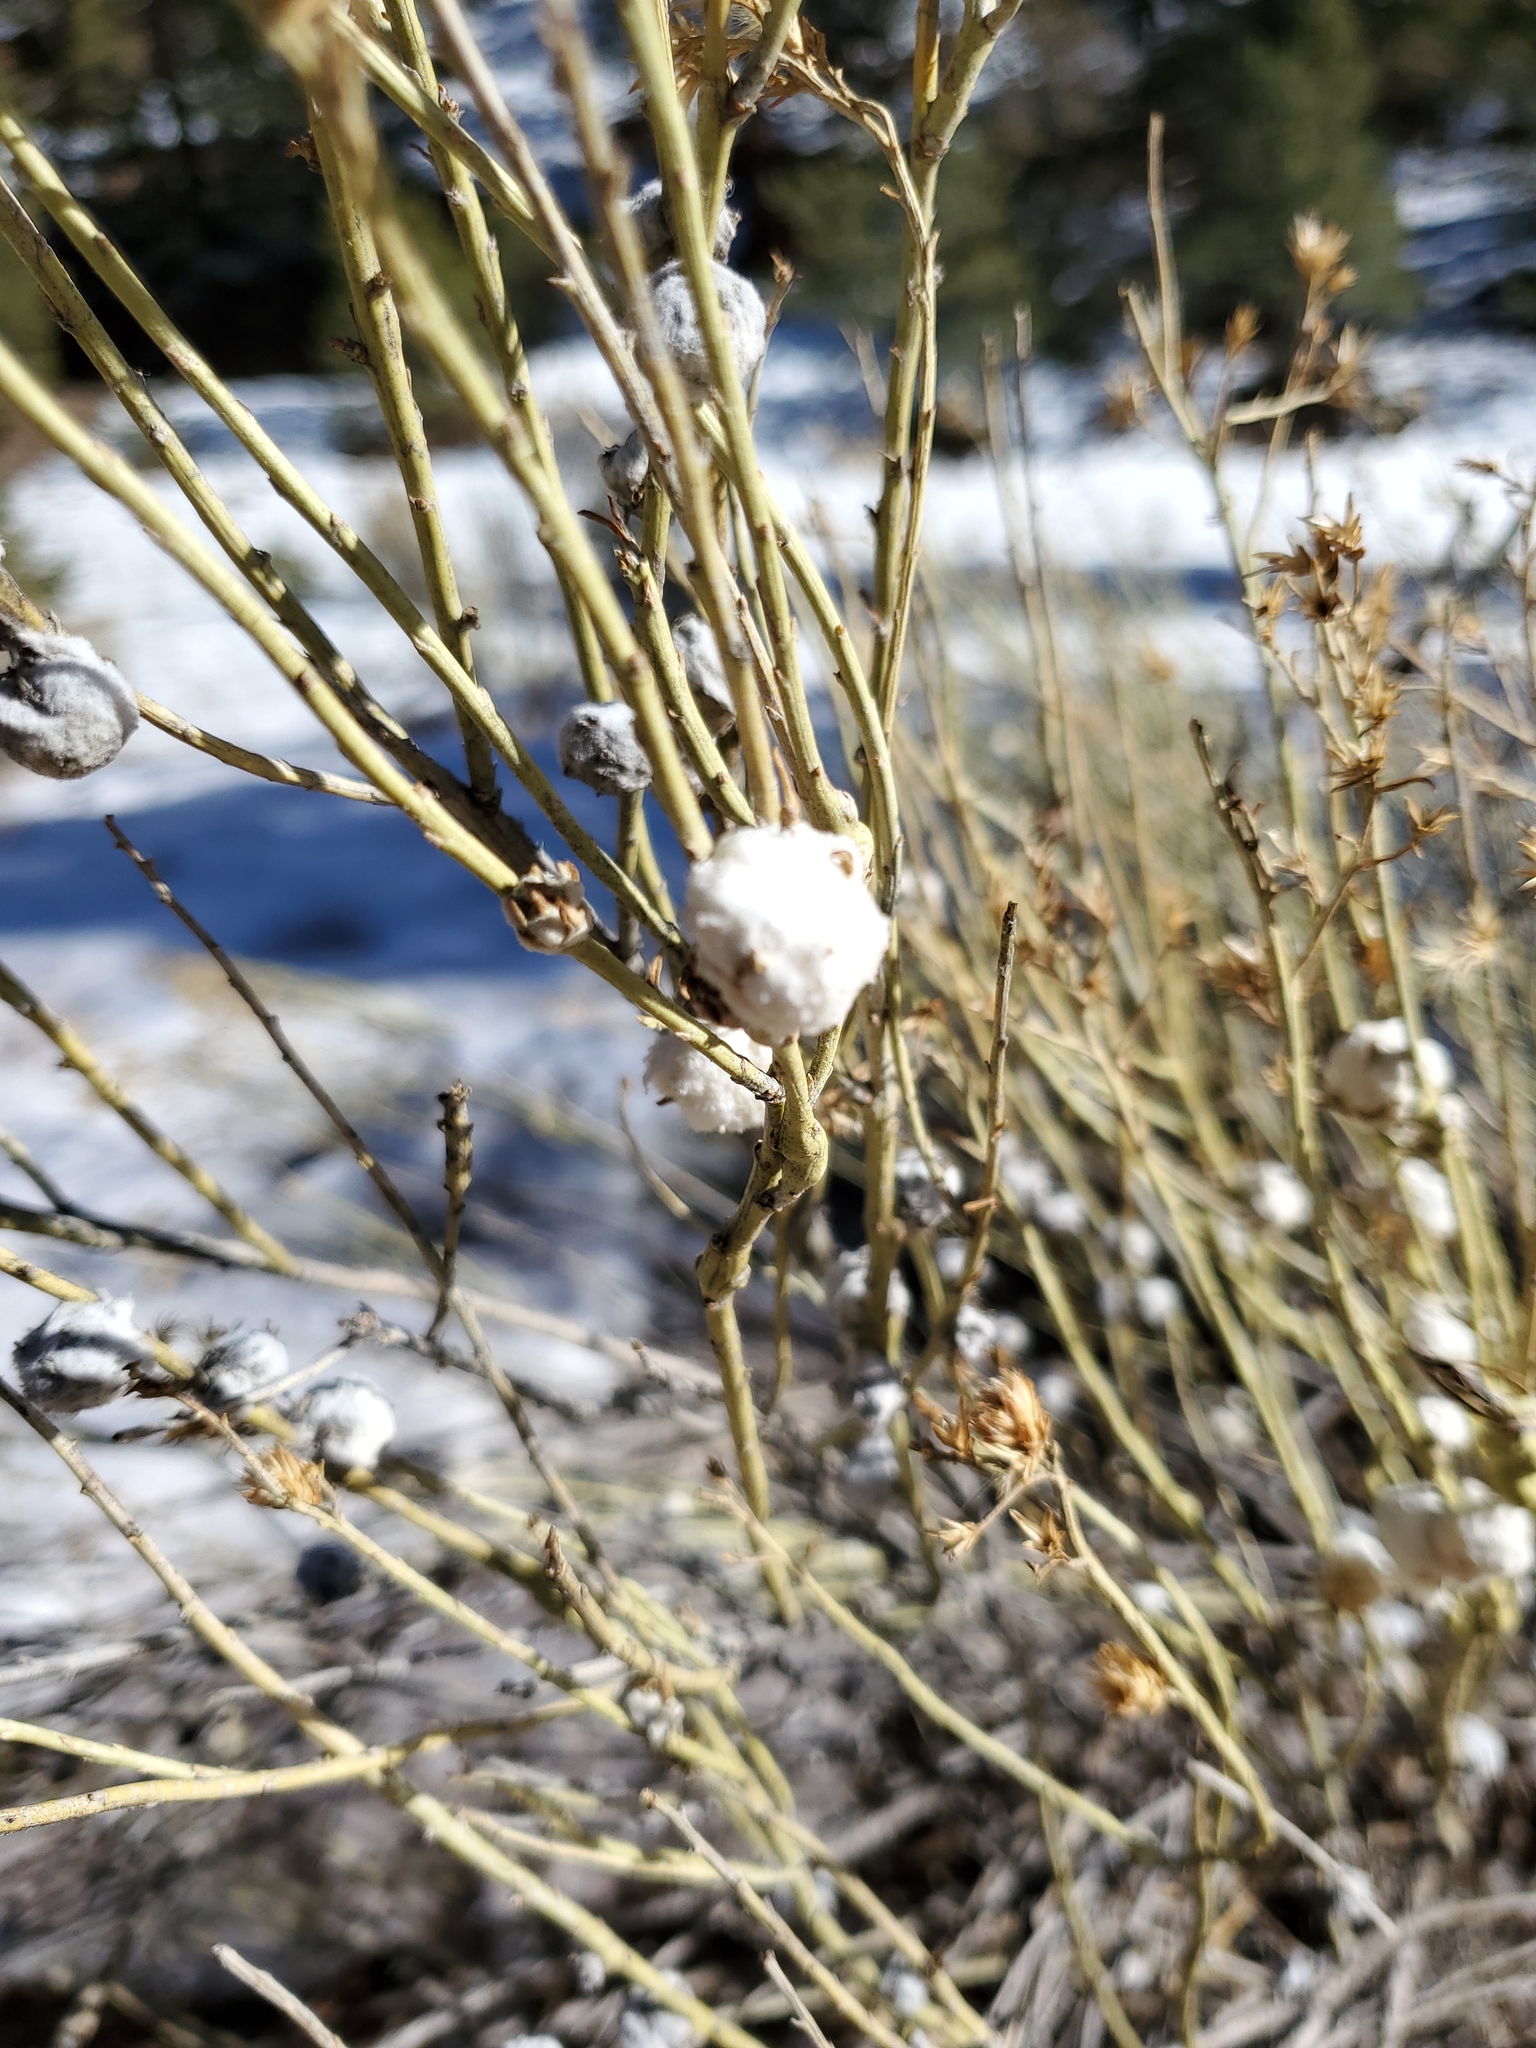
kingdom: Animalia
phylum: Arthropoda
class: Insecta
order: Diptera
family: Tephritidae
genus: Aciurina
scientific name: Aciurina bigeloviae
